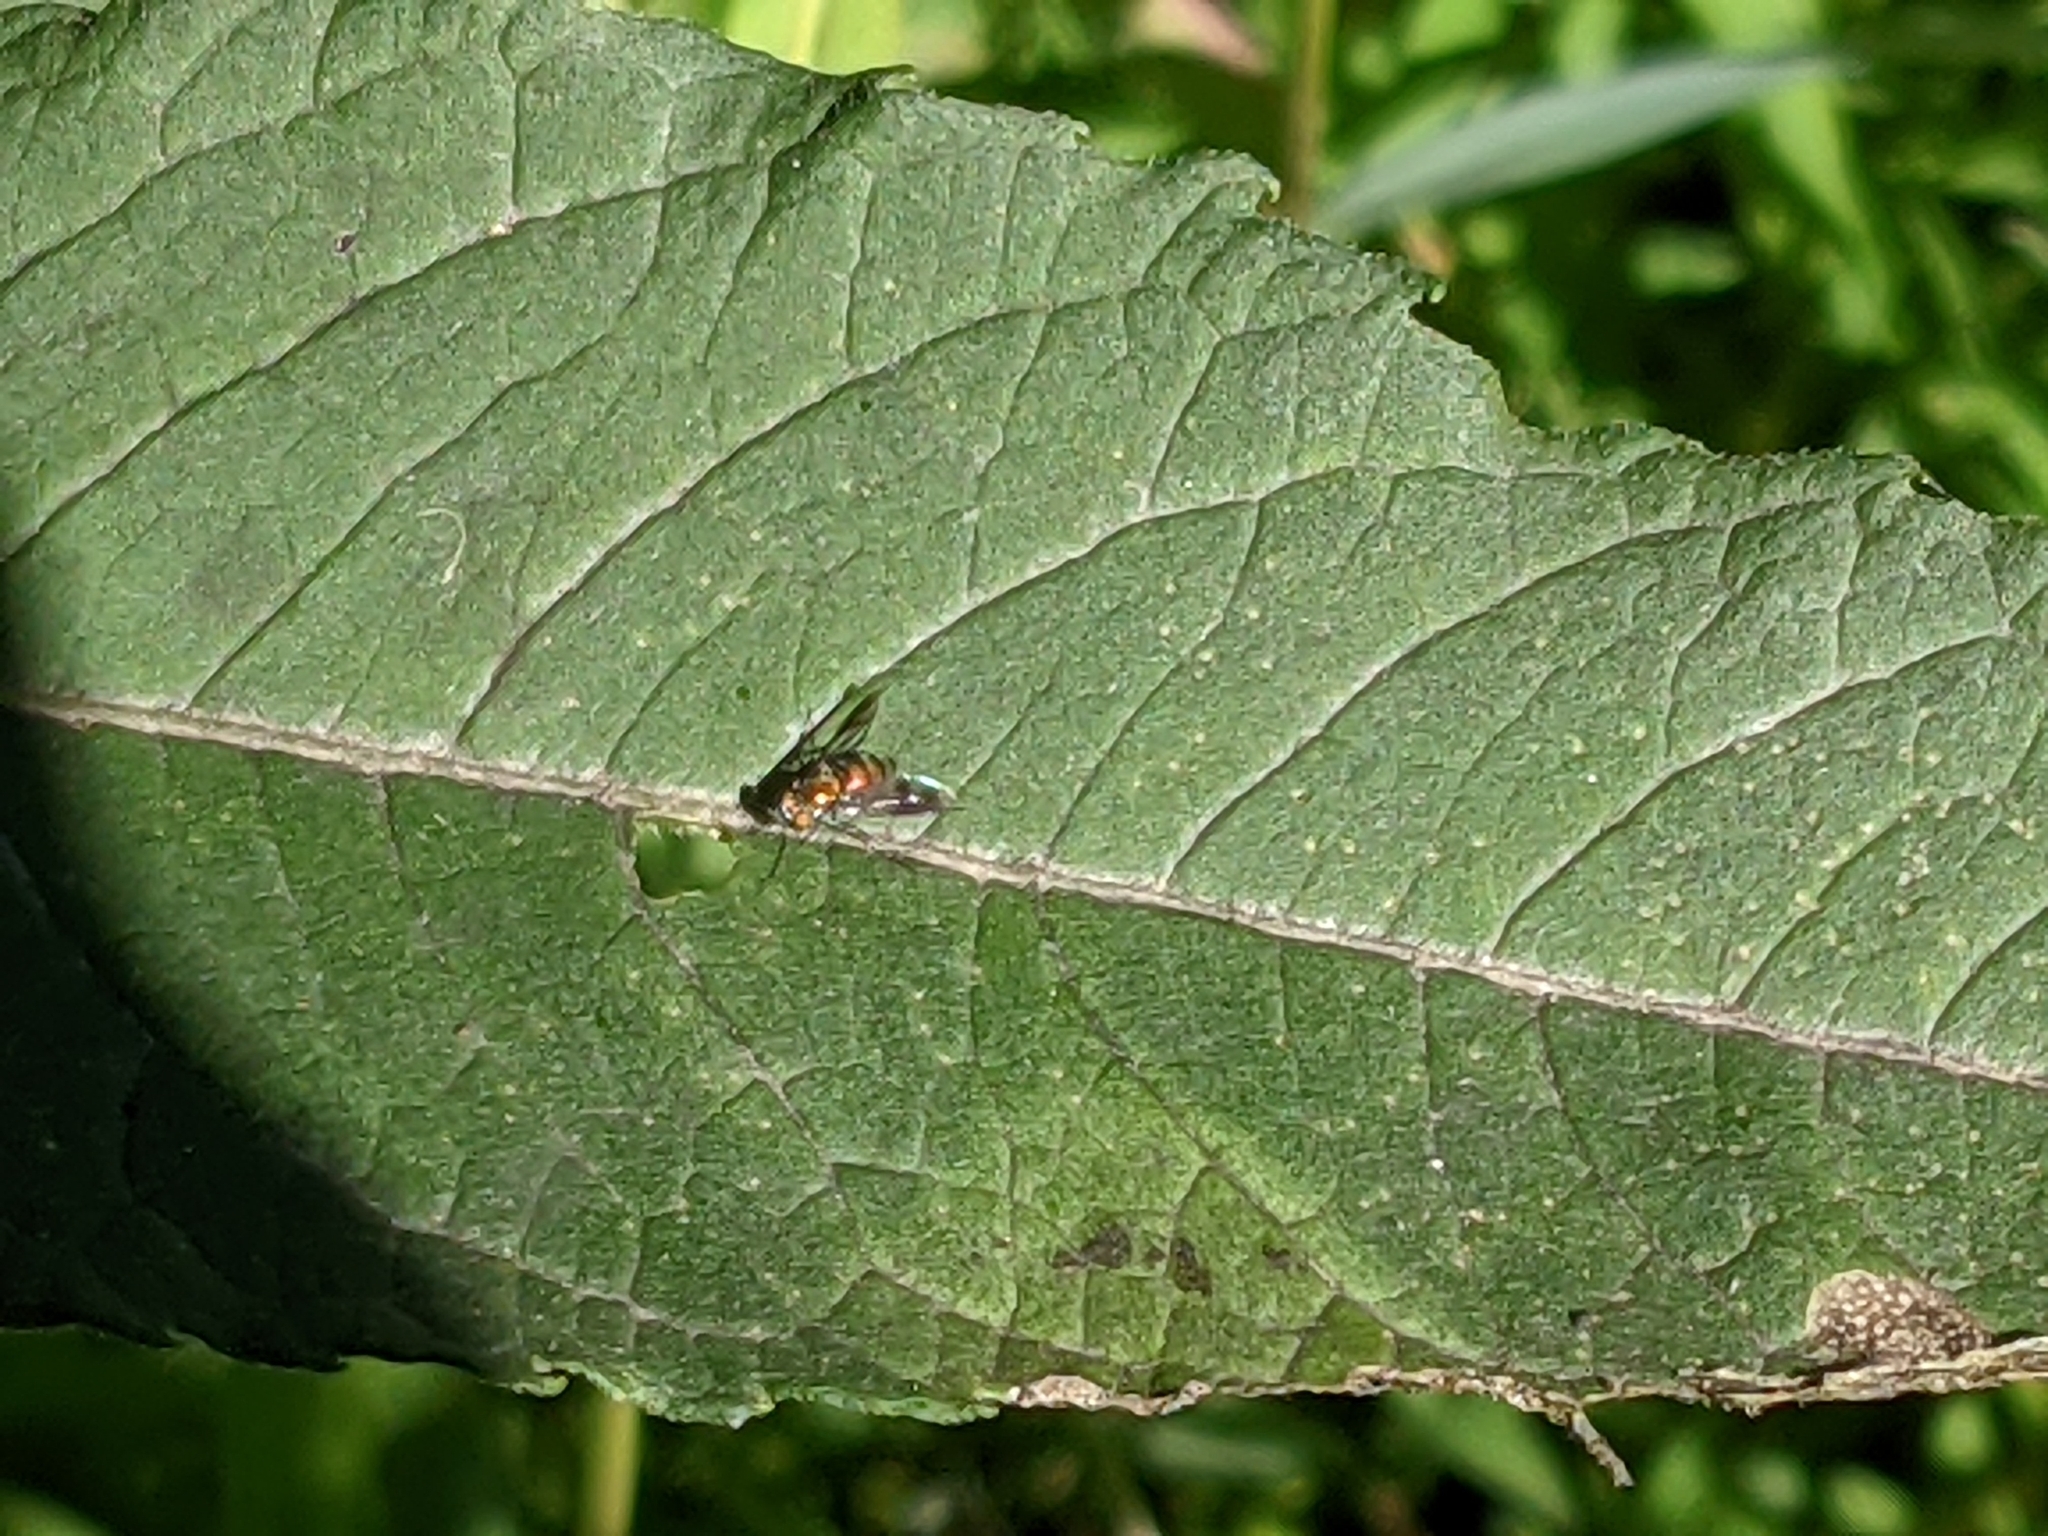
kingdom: Animalia
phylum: Arthropoda
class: Insecta
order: Diptera
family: Dolichopodidae
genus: Condylostylus
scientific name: Condylostylus patibulatus
